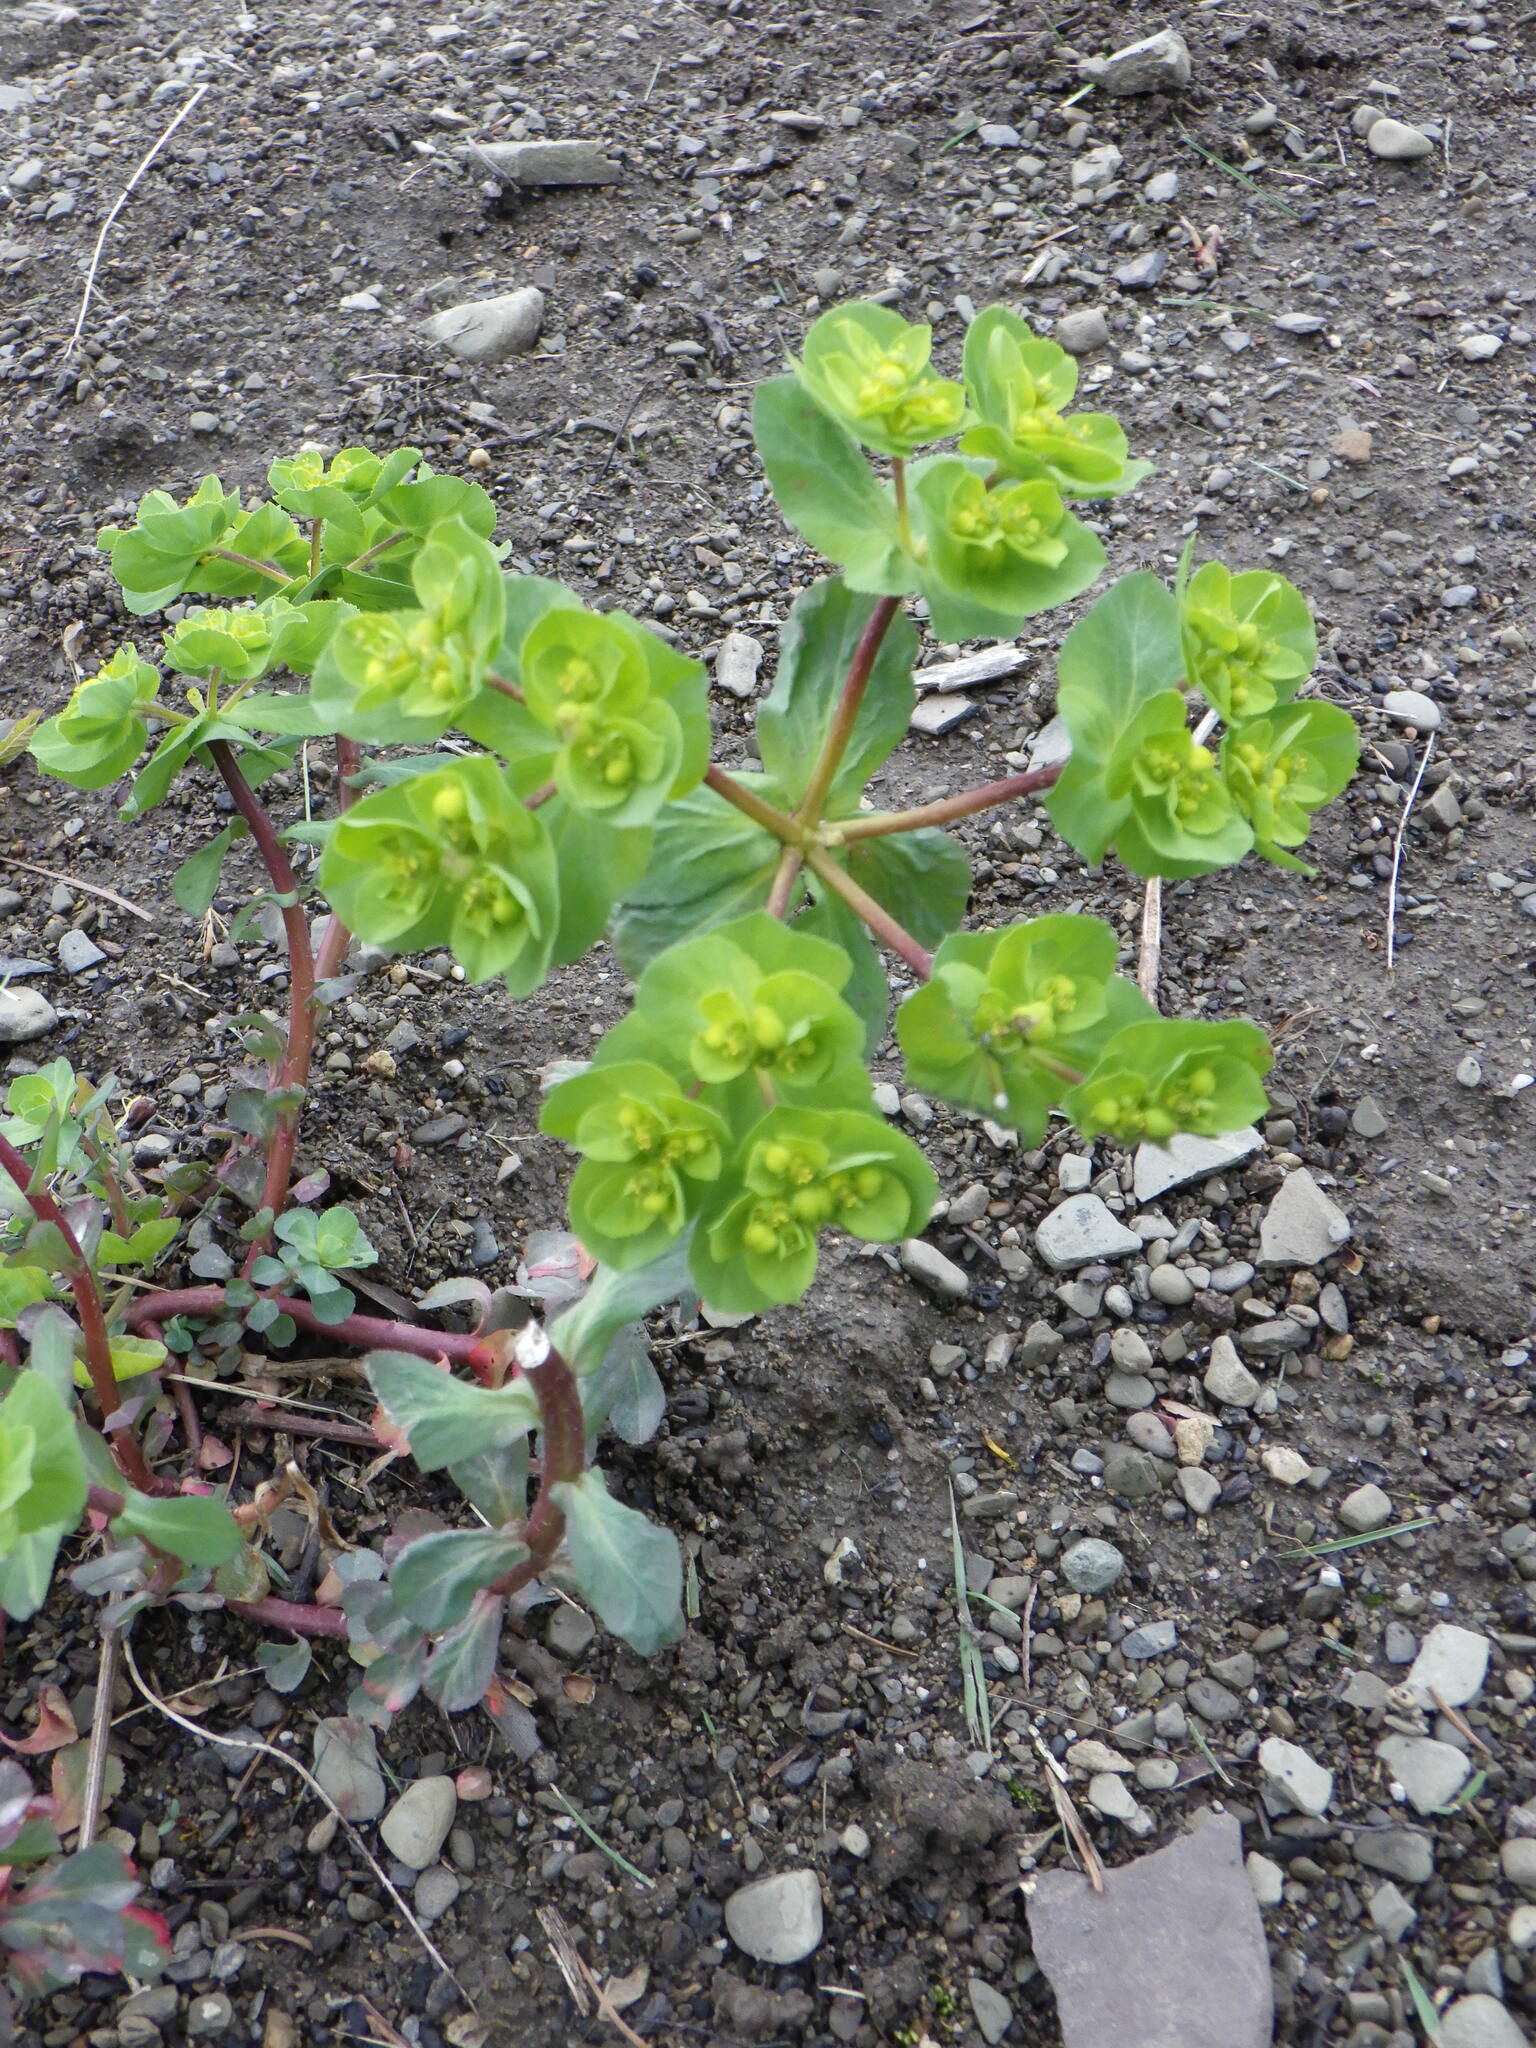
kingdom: Plantae
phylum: Tracheophyta
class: Magnoliopsida
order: Malpighiales
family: Euphorbiaceae
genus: Euphorbia
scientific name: Euphorbia helioscopia
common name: Sun spurge
